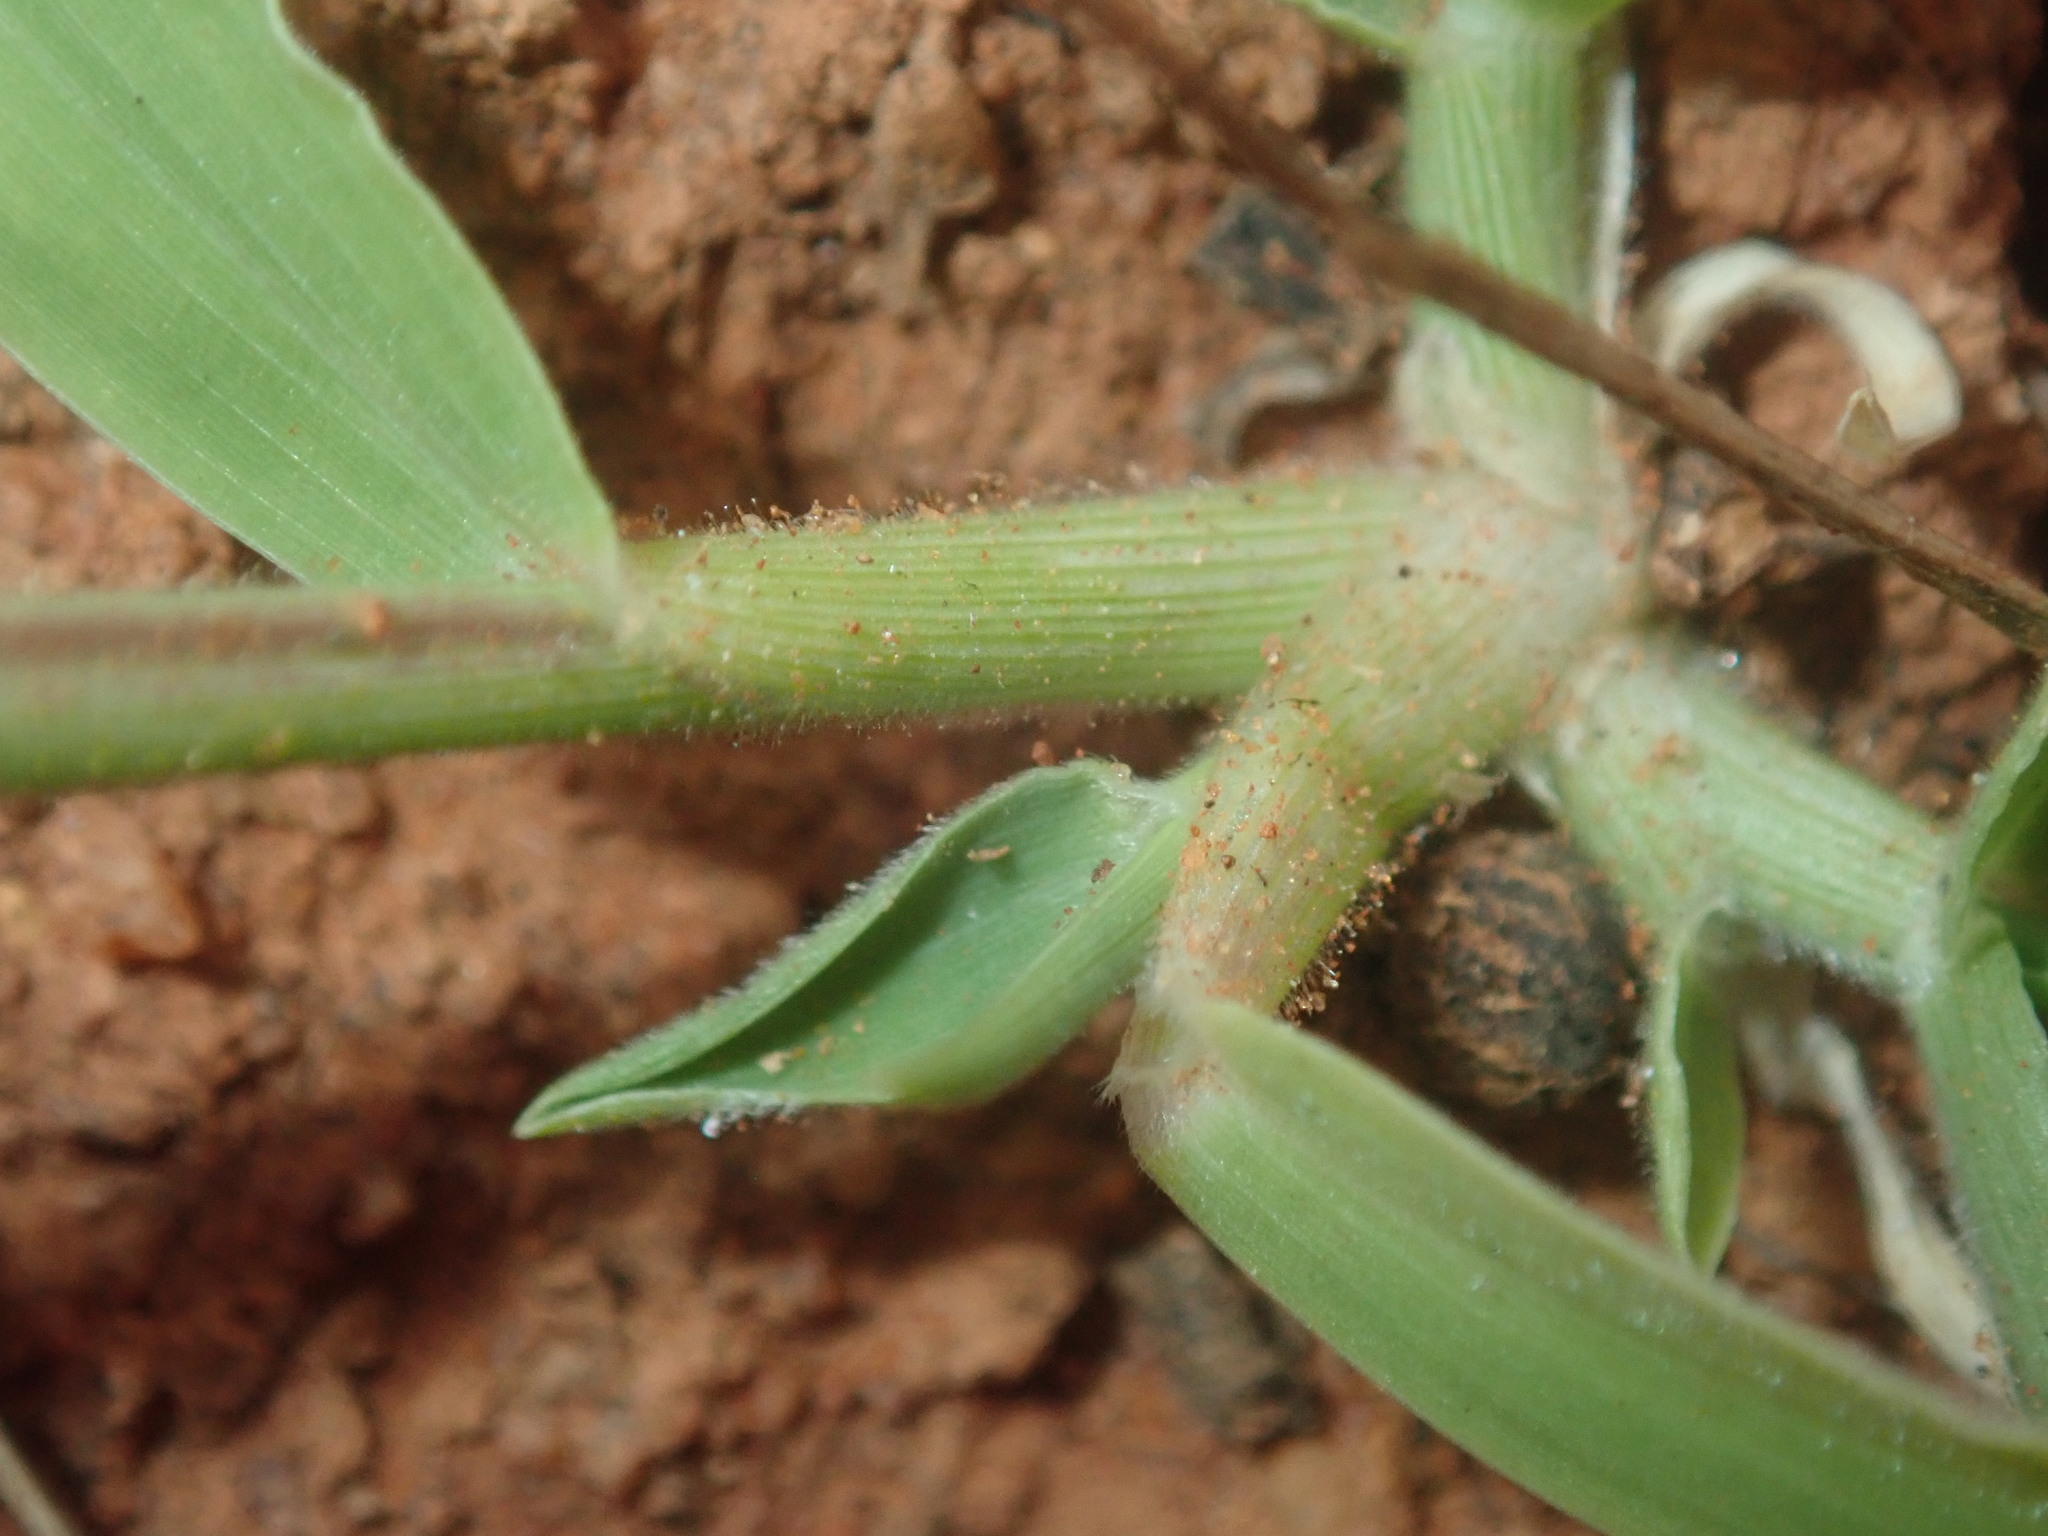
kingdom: Plantae
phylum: Tracheophyta
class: Liliopsida
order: Poales
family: Poaceae
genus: Eriochloa
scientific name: Eriochloa pseudoacrotricha
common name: Perennial cup-grass
